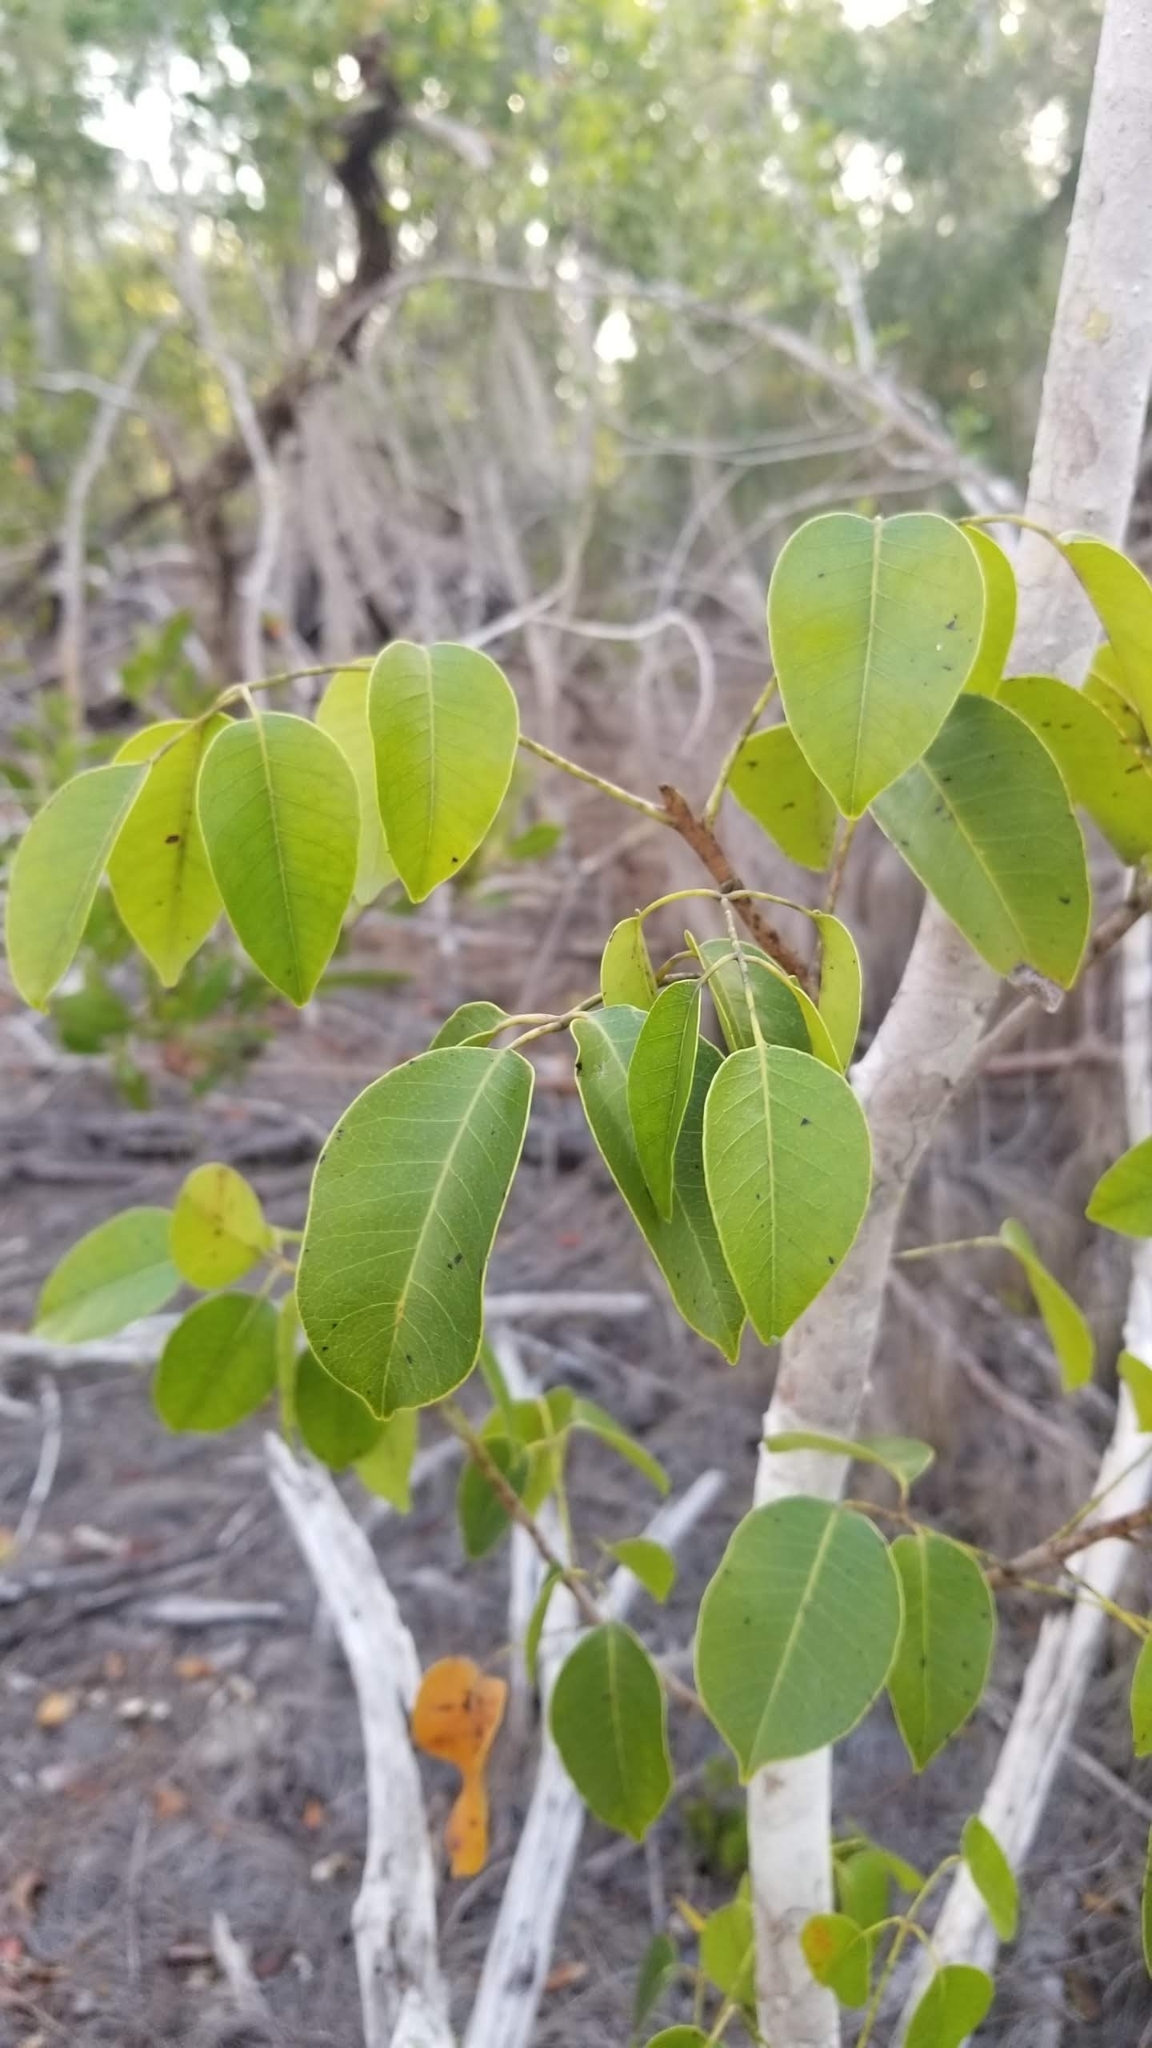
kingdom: Plantae
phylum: Tracheophyta
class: Magnoliopsida
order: Sapindales
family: Anacardiaceae
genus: Metopium
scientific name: Metopium toxiferum
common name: Florida poisontree
